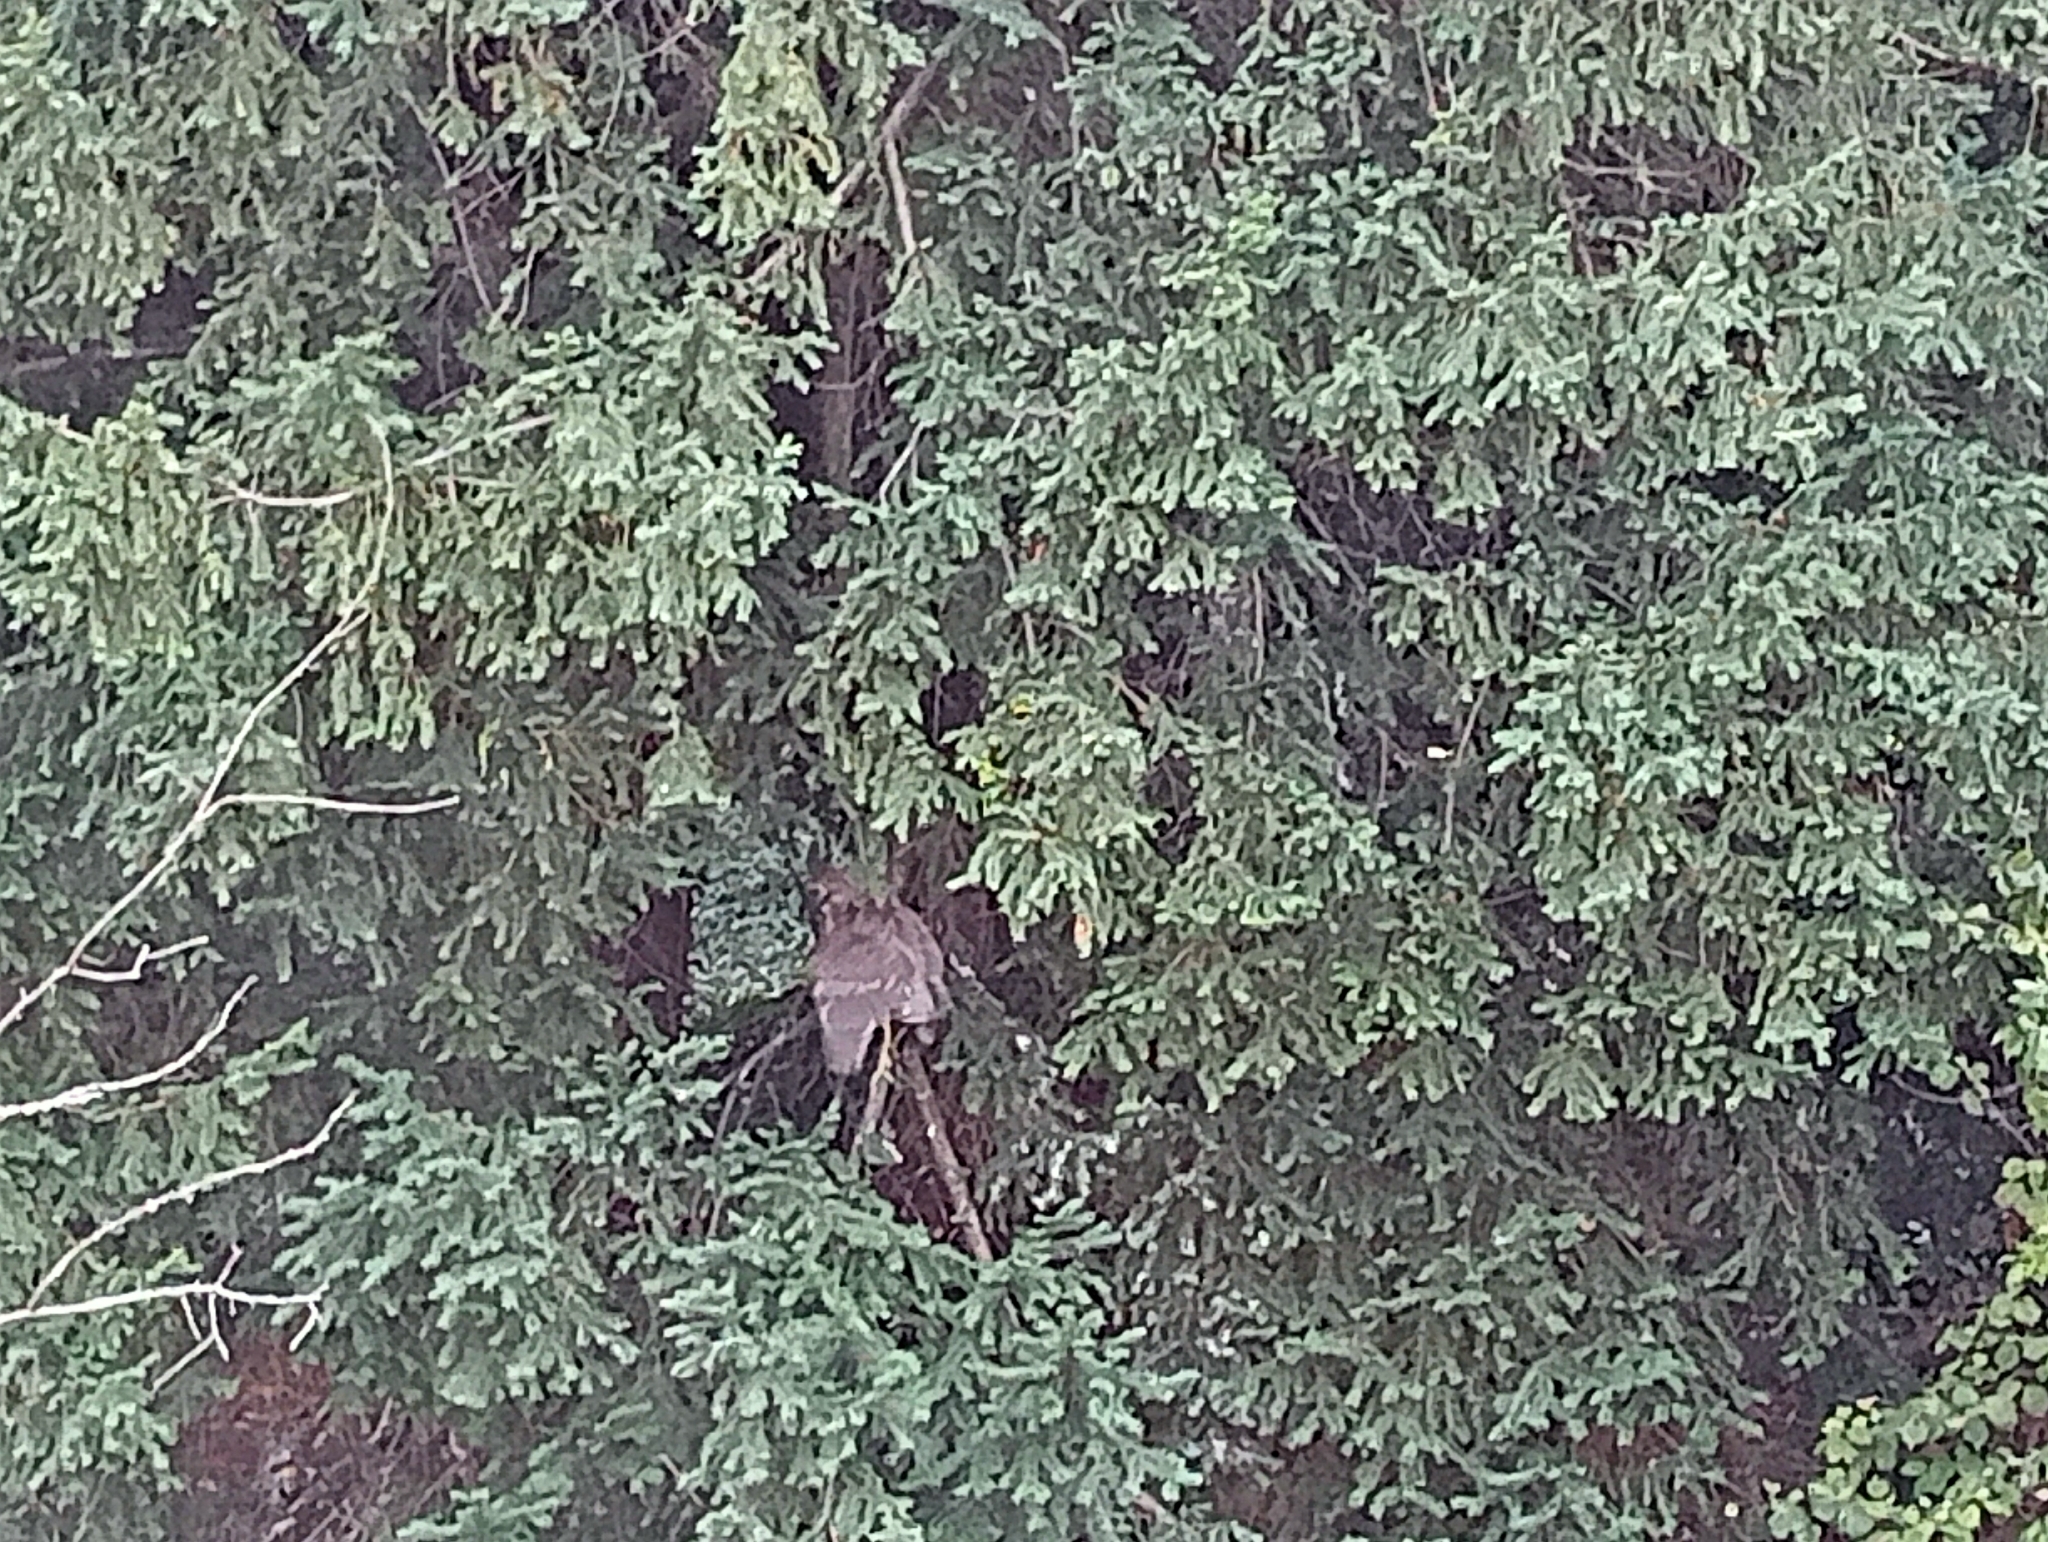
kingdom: Animalia
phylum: Chordata
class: Aves
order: Pelecaniformes
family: Ardeidae
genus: Nycticorax
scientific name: Nycticorax nycticorax
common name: Black-crowned night heron
